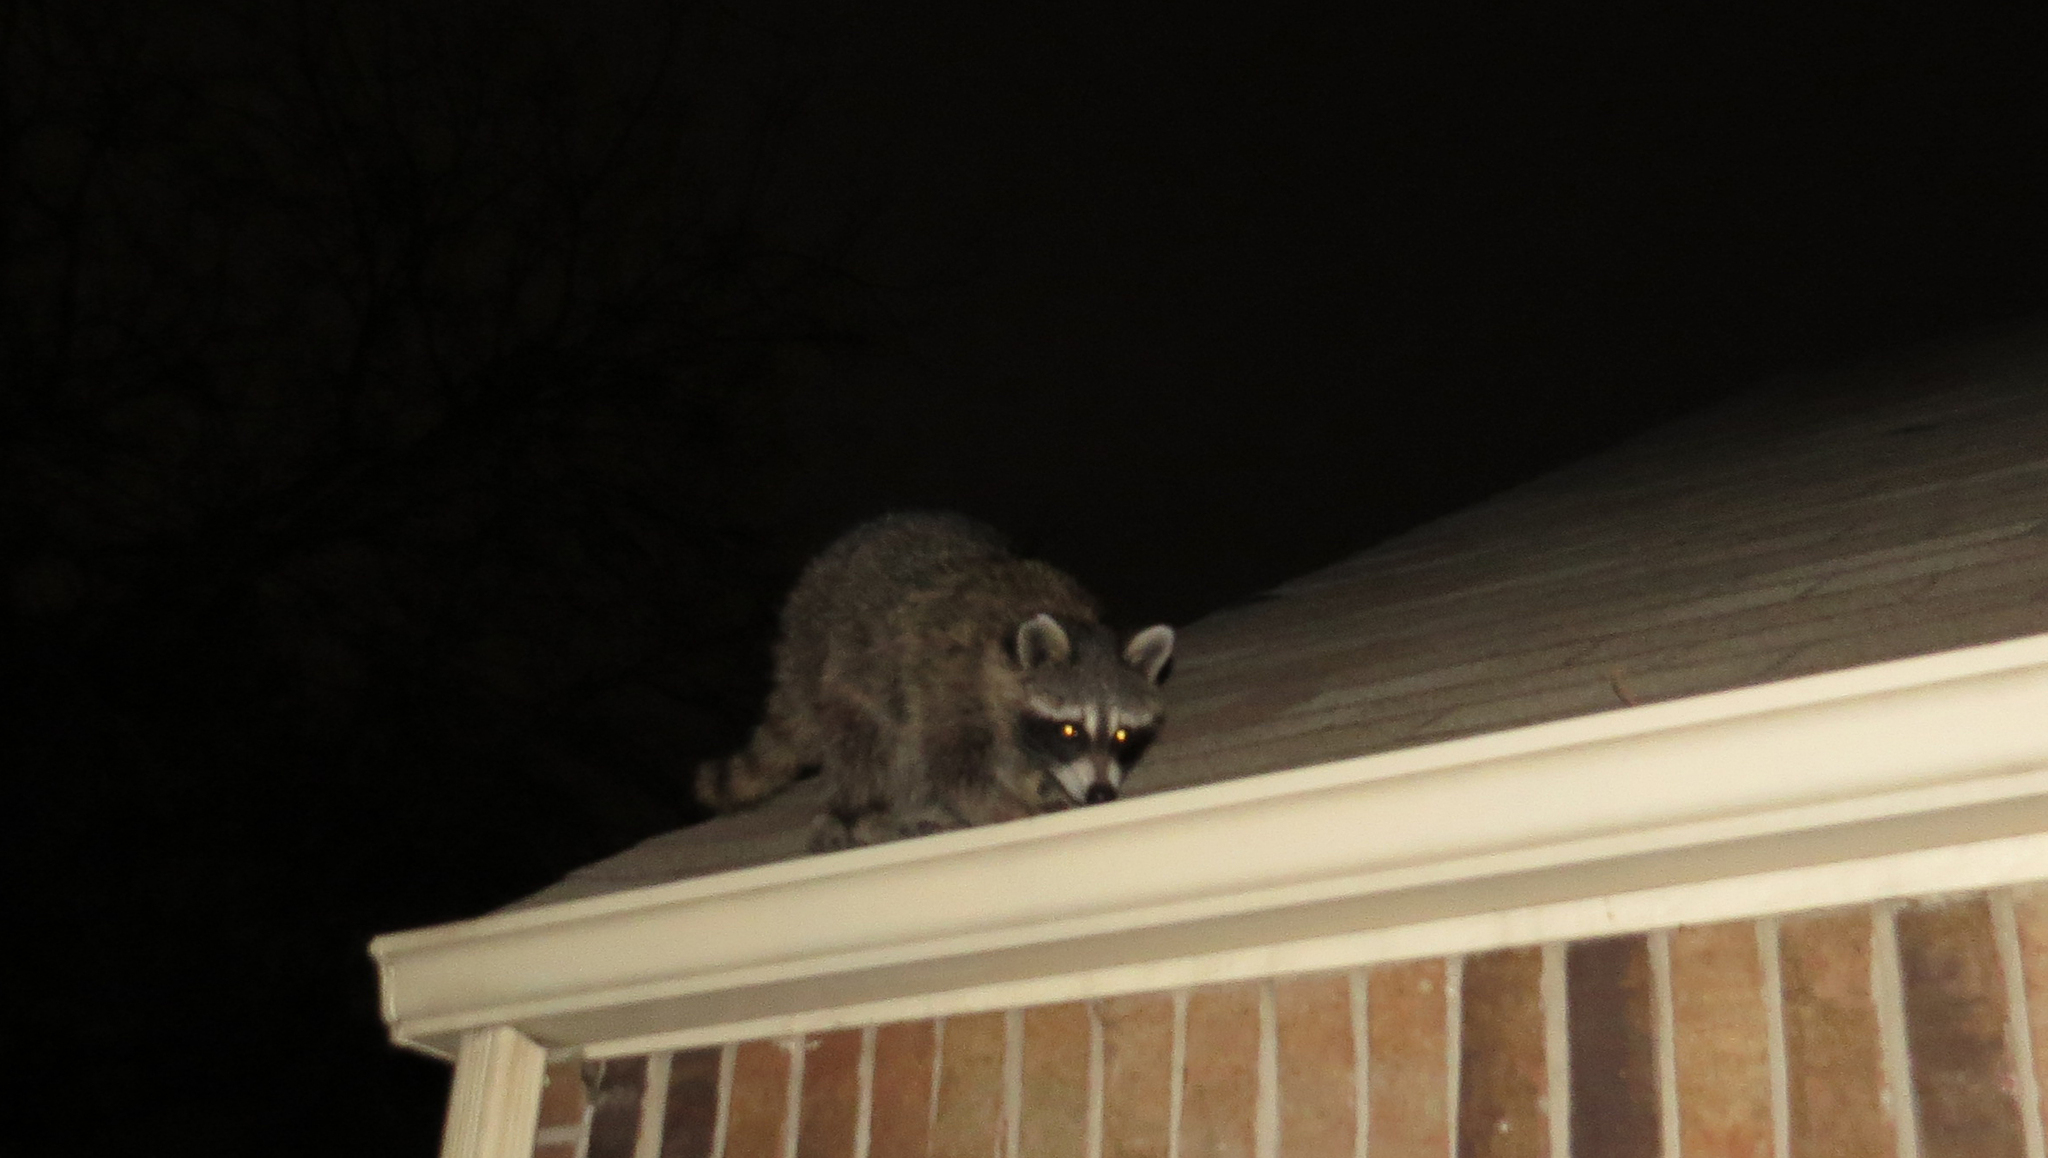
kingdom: Animalia
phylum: Chordata
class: Mammalia
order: Carnivora
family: Procyonidae
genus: Procyon
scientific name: Procyon lotor
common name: Raccoon
